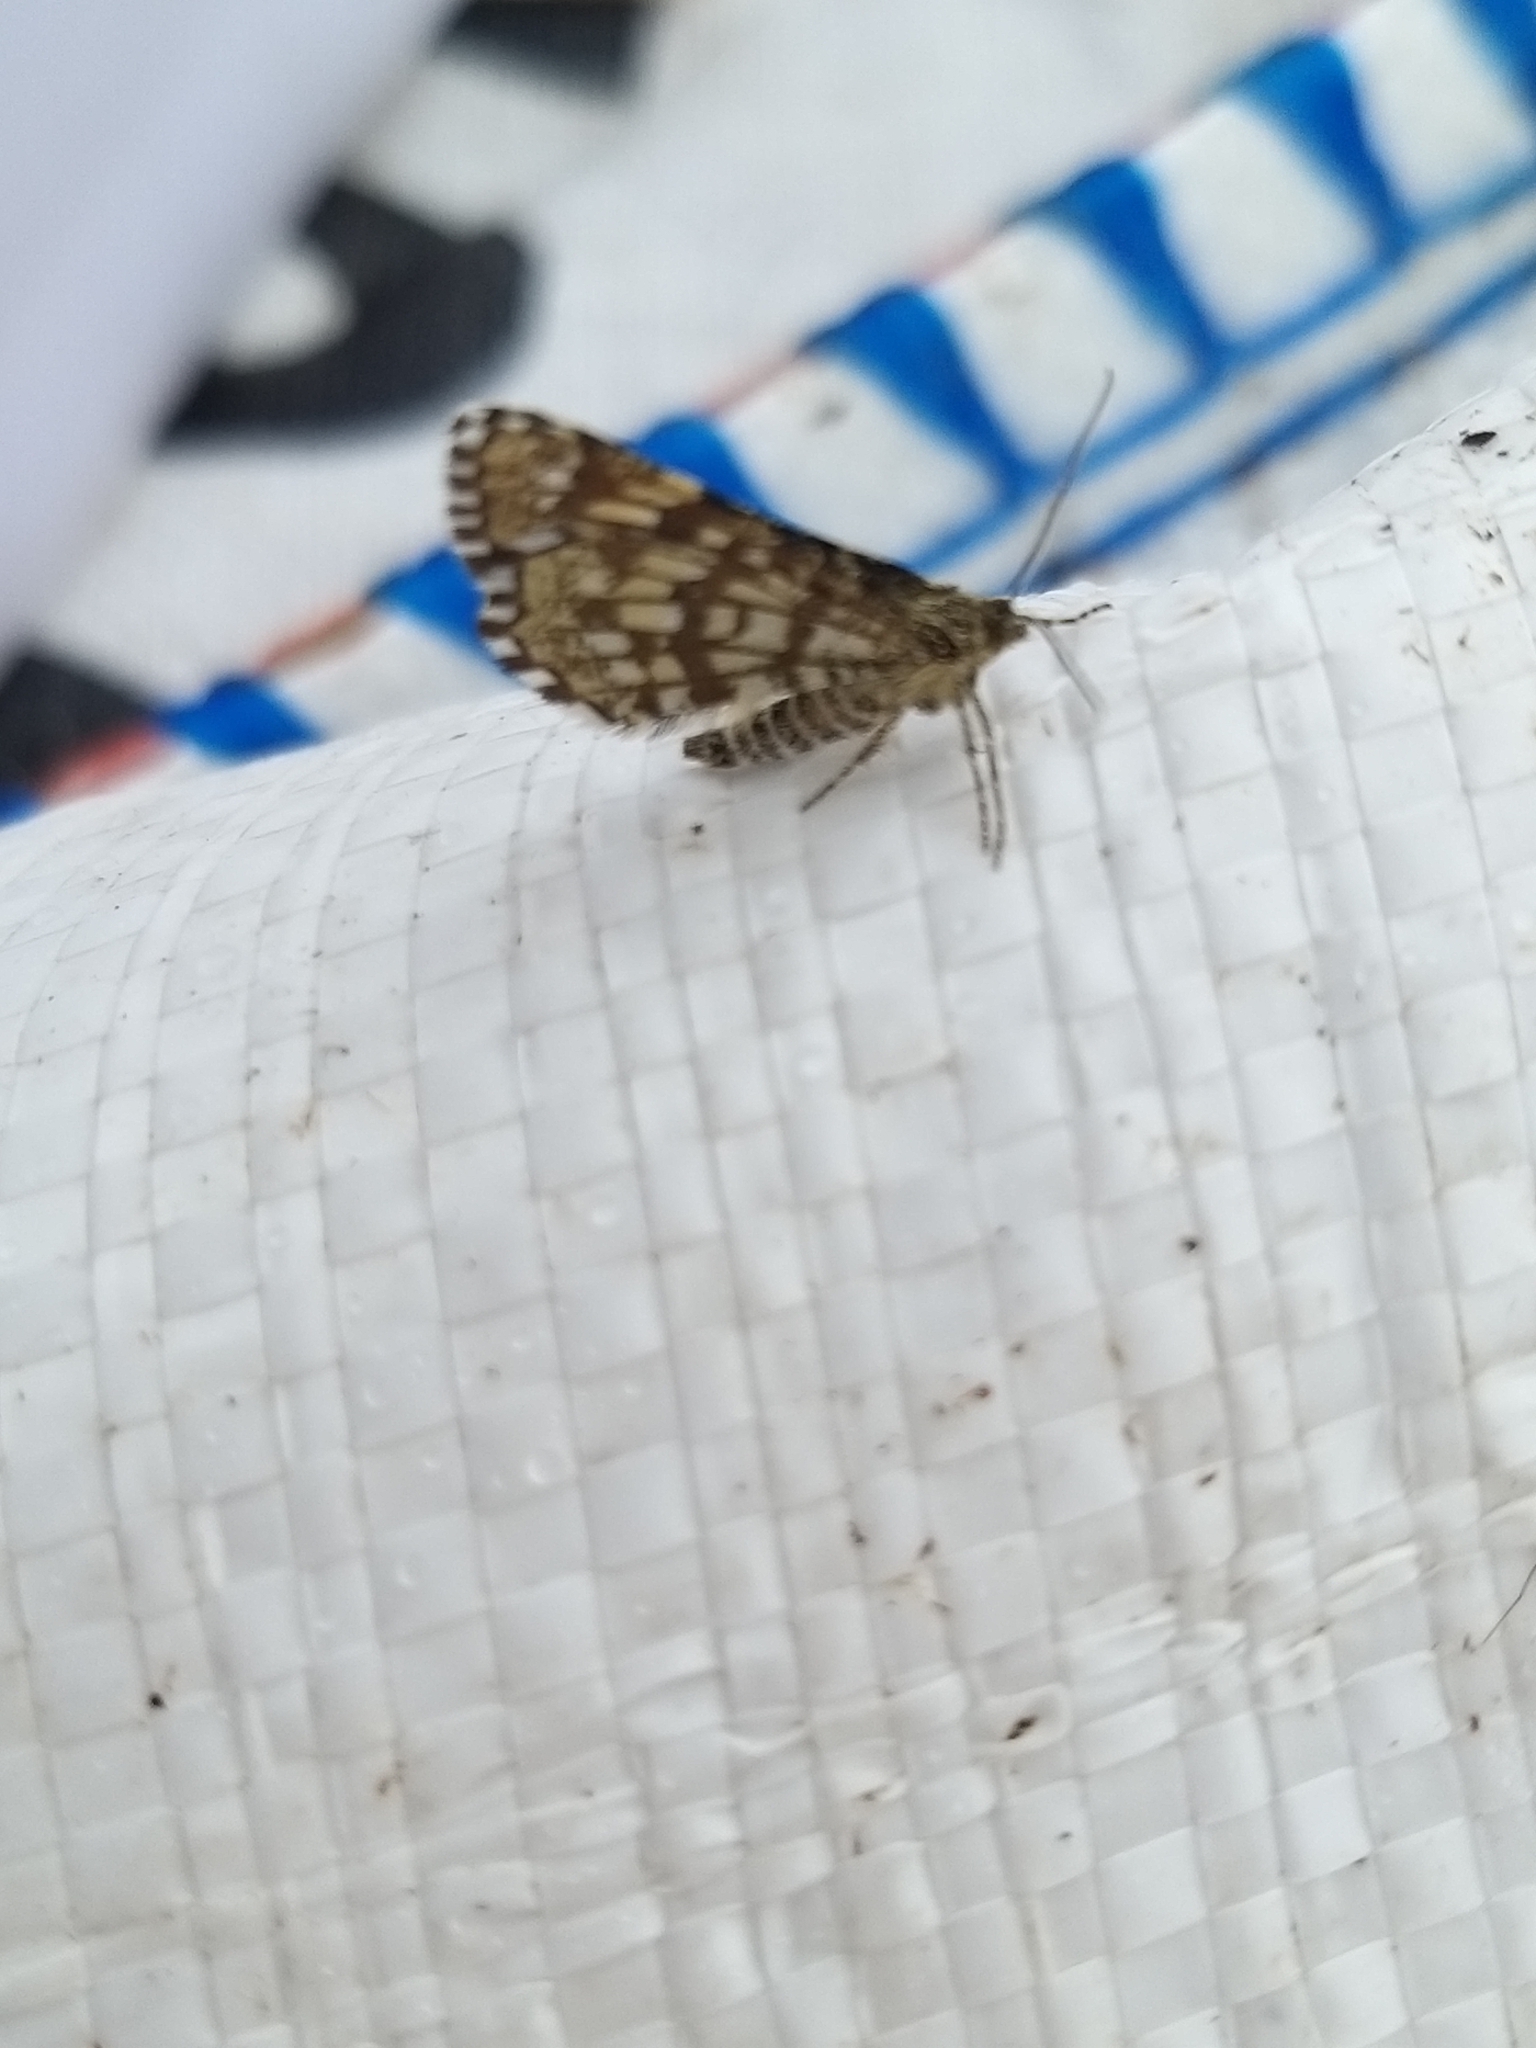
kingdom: Animalia
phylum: Arthropoda
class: Insecta
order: Lepidoptera
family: Geometridae
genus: Chiasmia
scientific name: Chiasmia clathrata
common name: Latticed heath
